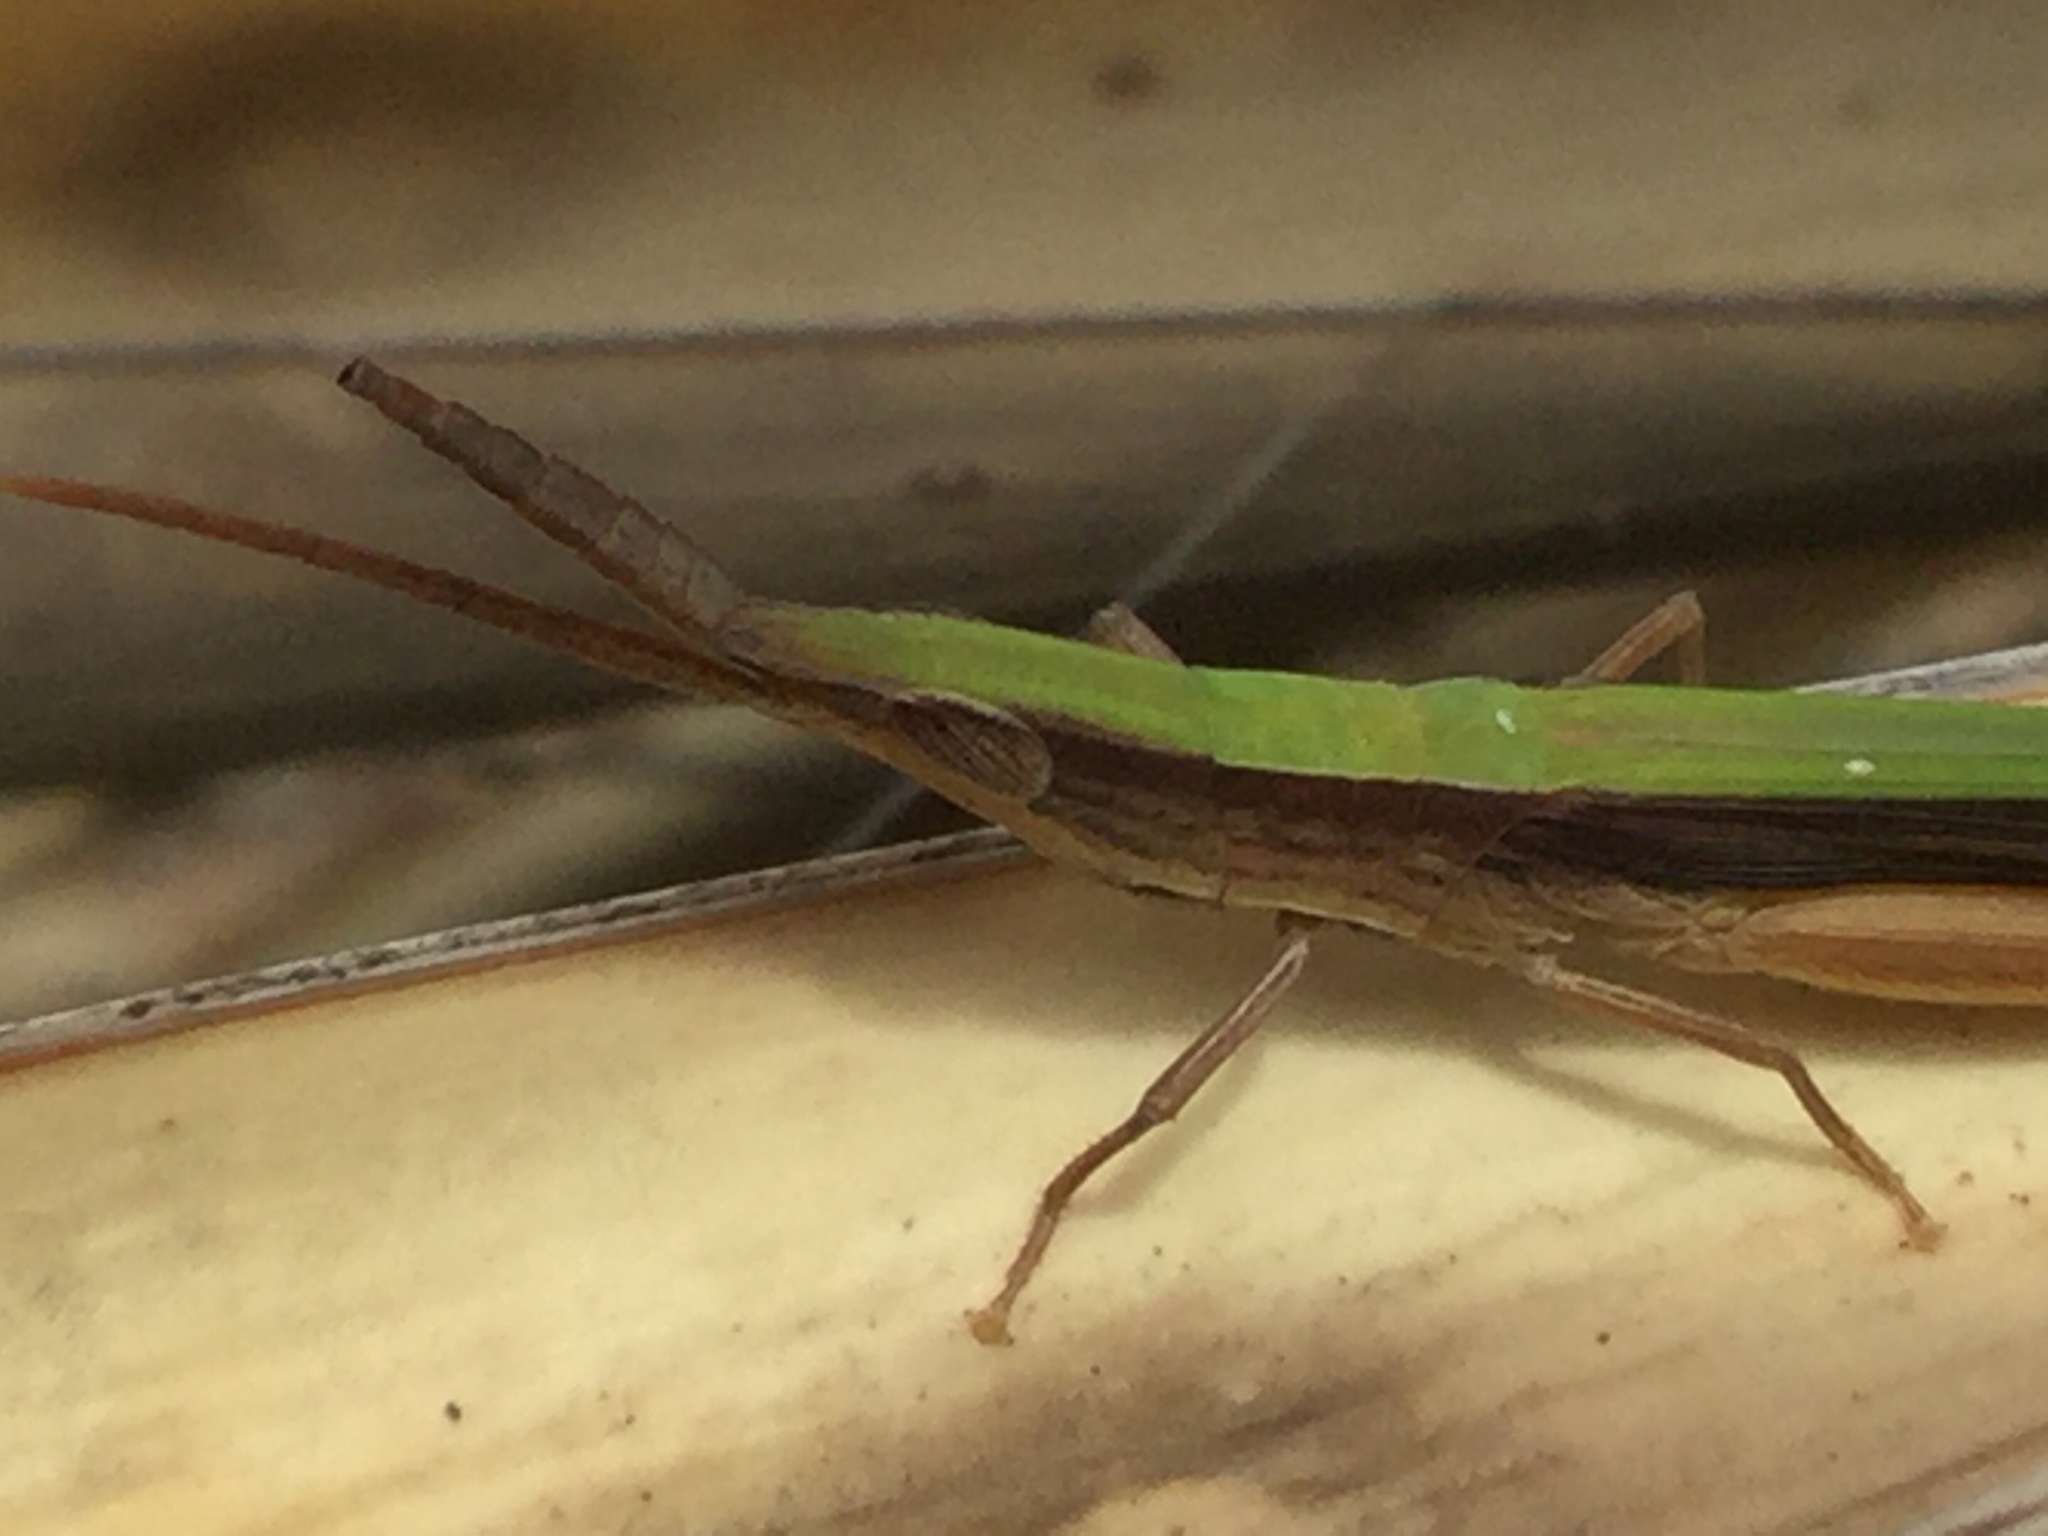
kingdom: Animalia
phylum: Arthropoda
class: Insecta
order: Orthoptera
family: Acrididae
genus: Achurum
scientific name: Achurum sumichrasti
